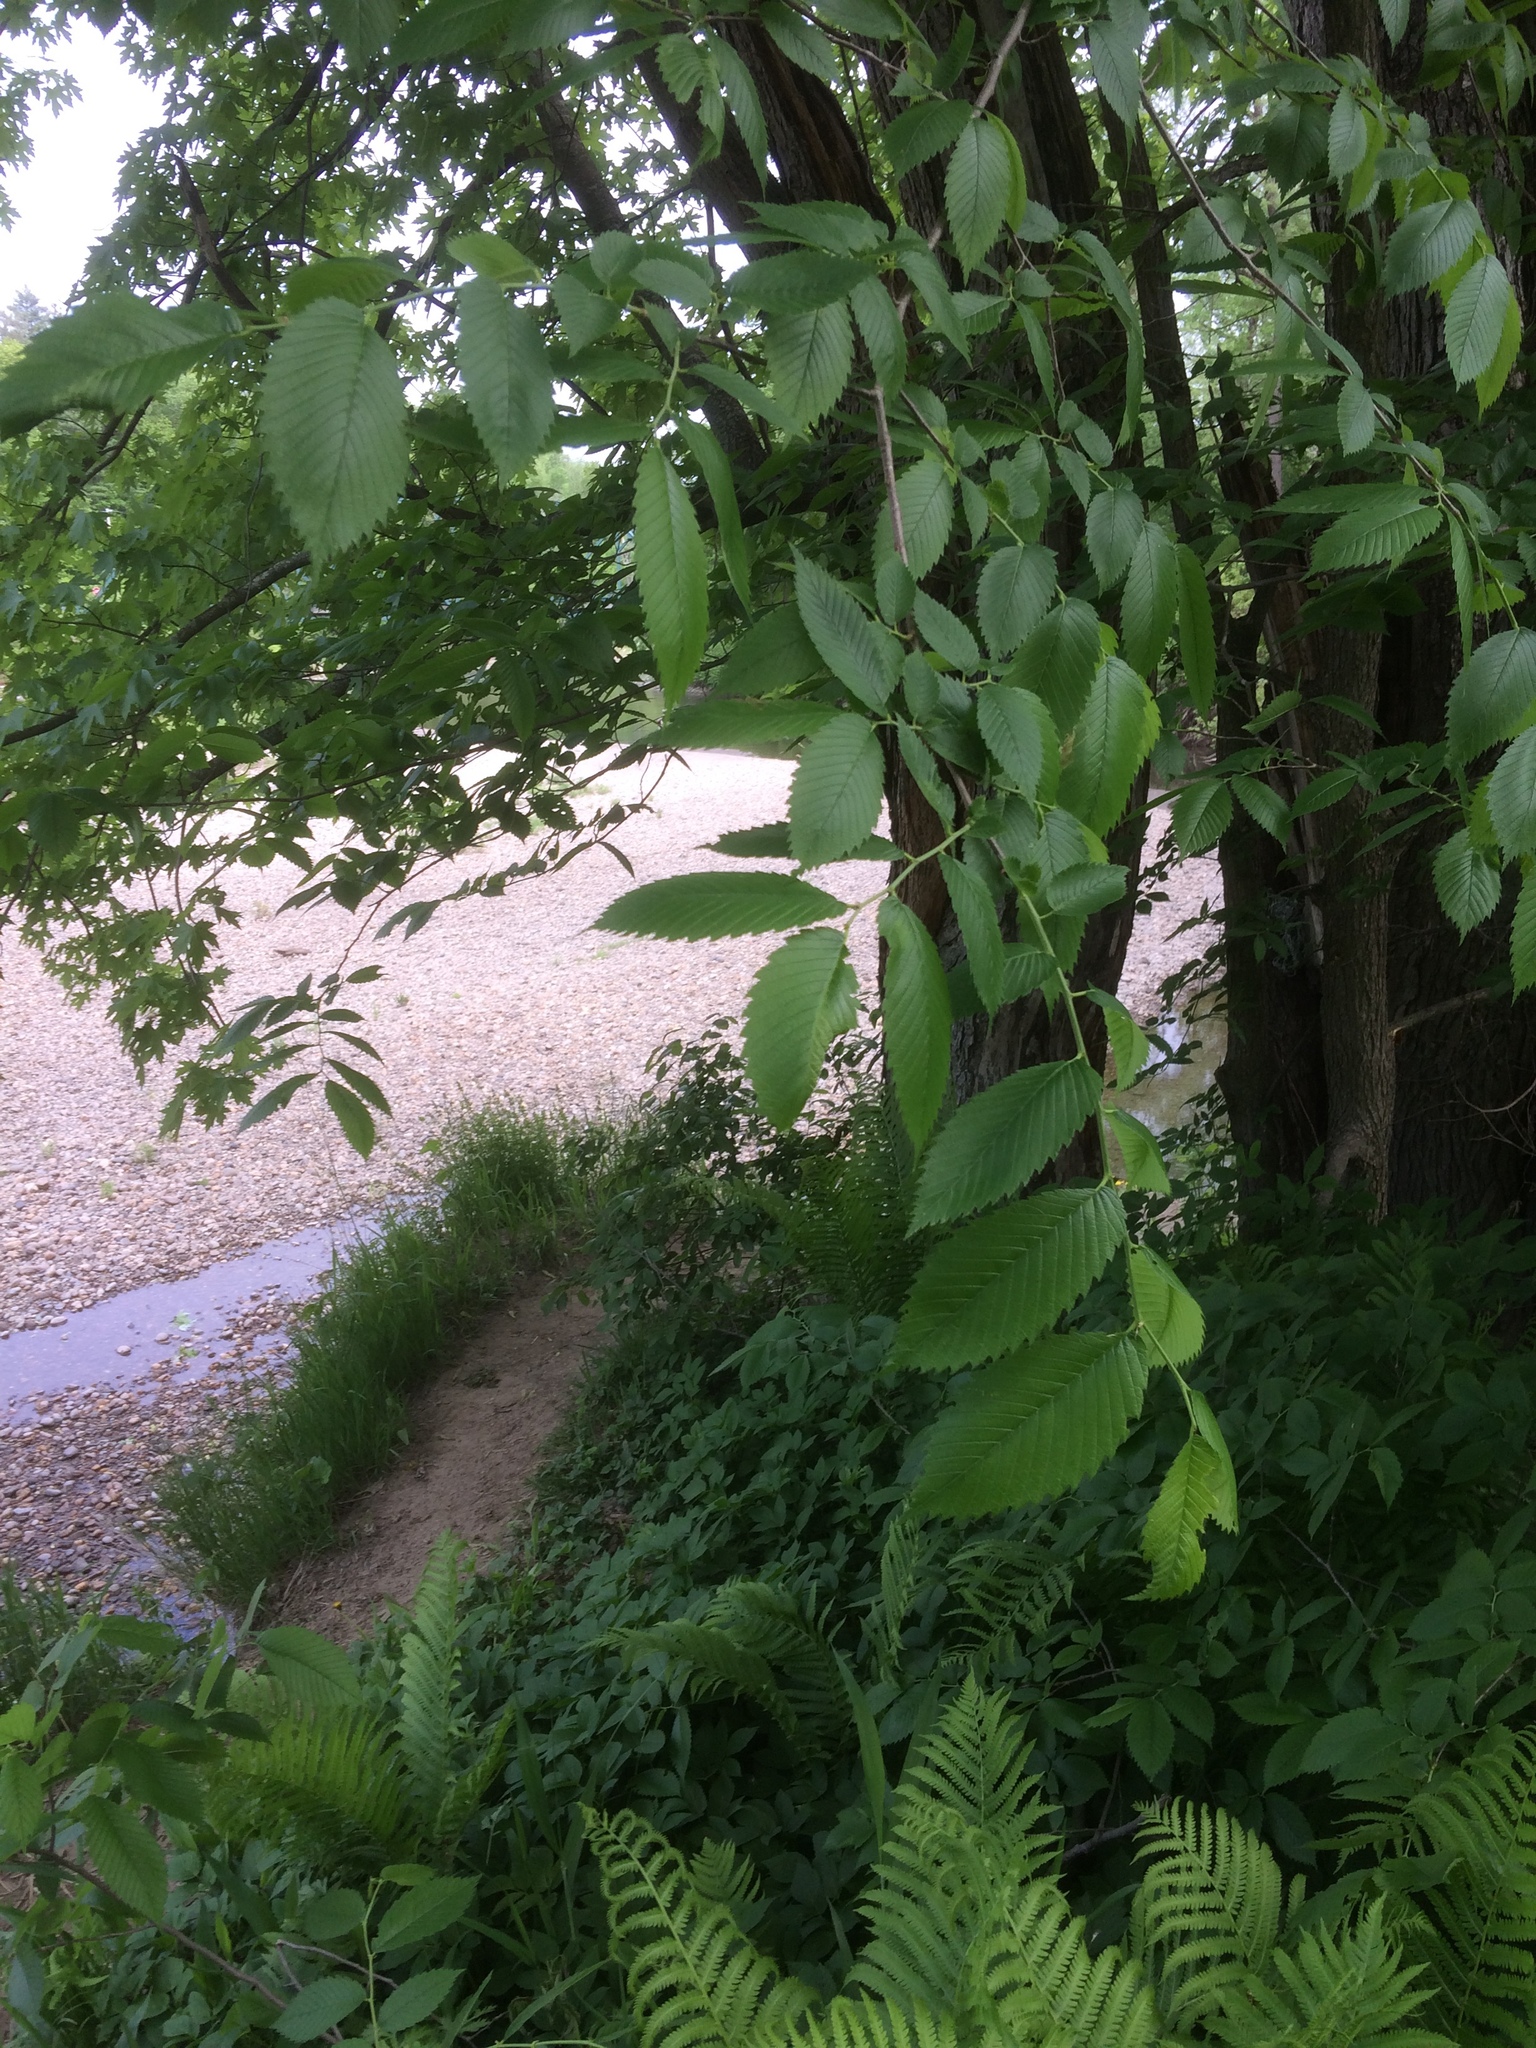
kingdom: Plantae
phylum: Tracheophyta
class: Magnoliopsida
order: Rosales
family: Ulmaceae
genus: Ulmus
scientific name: Ulmus americana
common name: American elm
